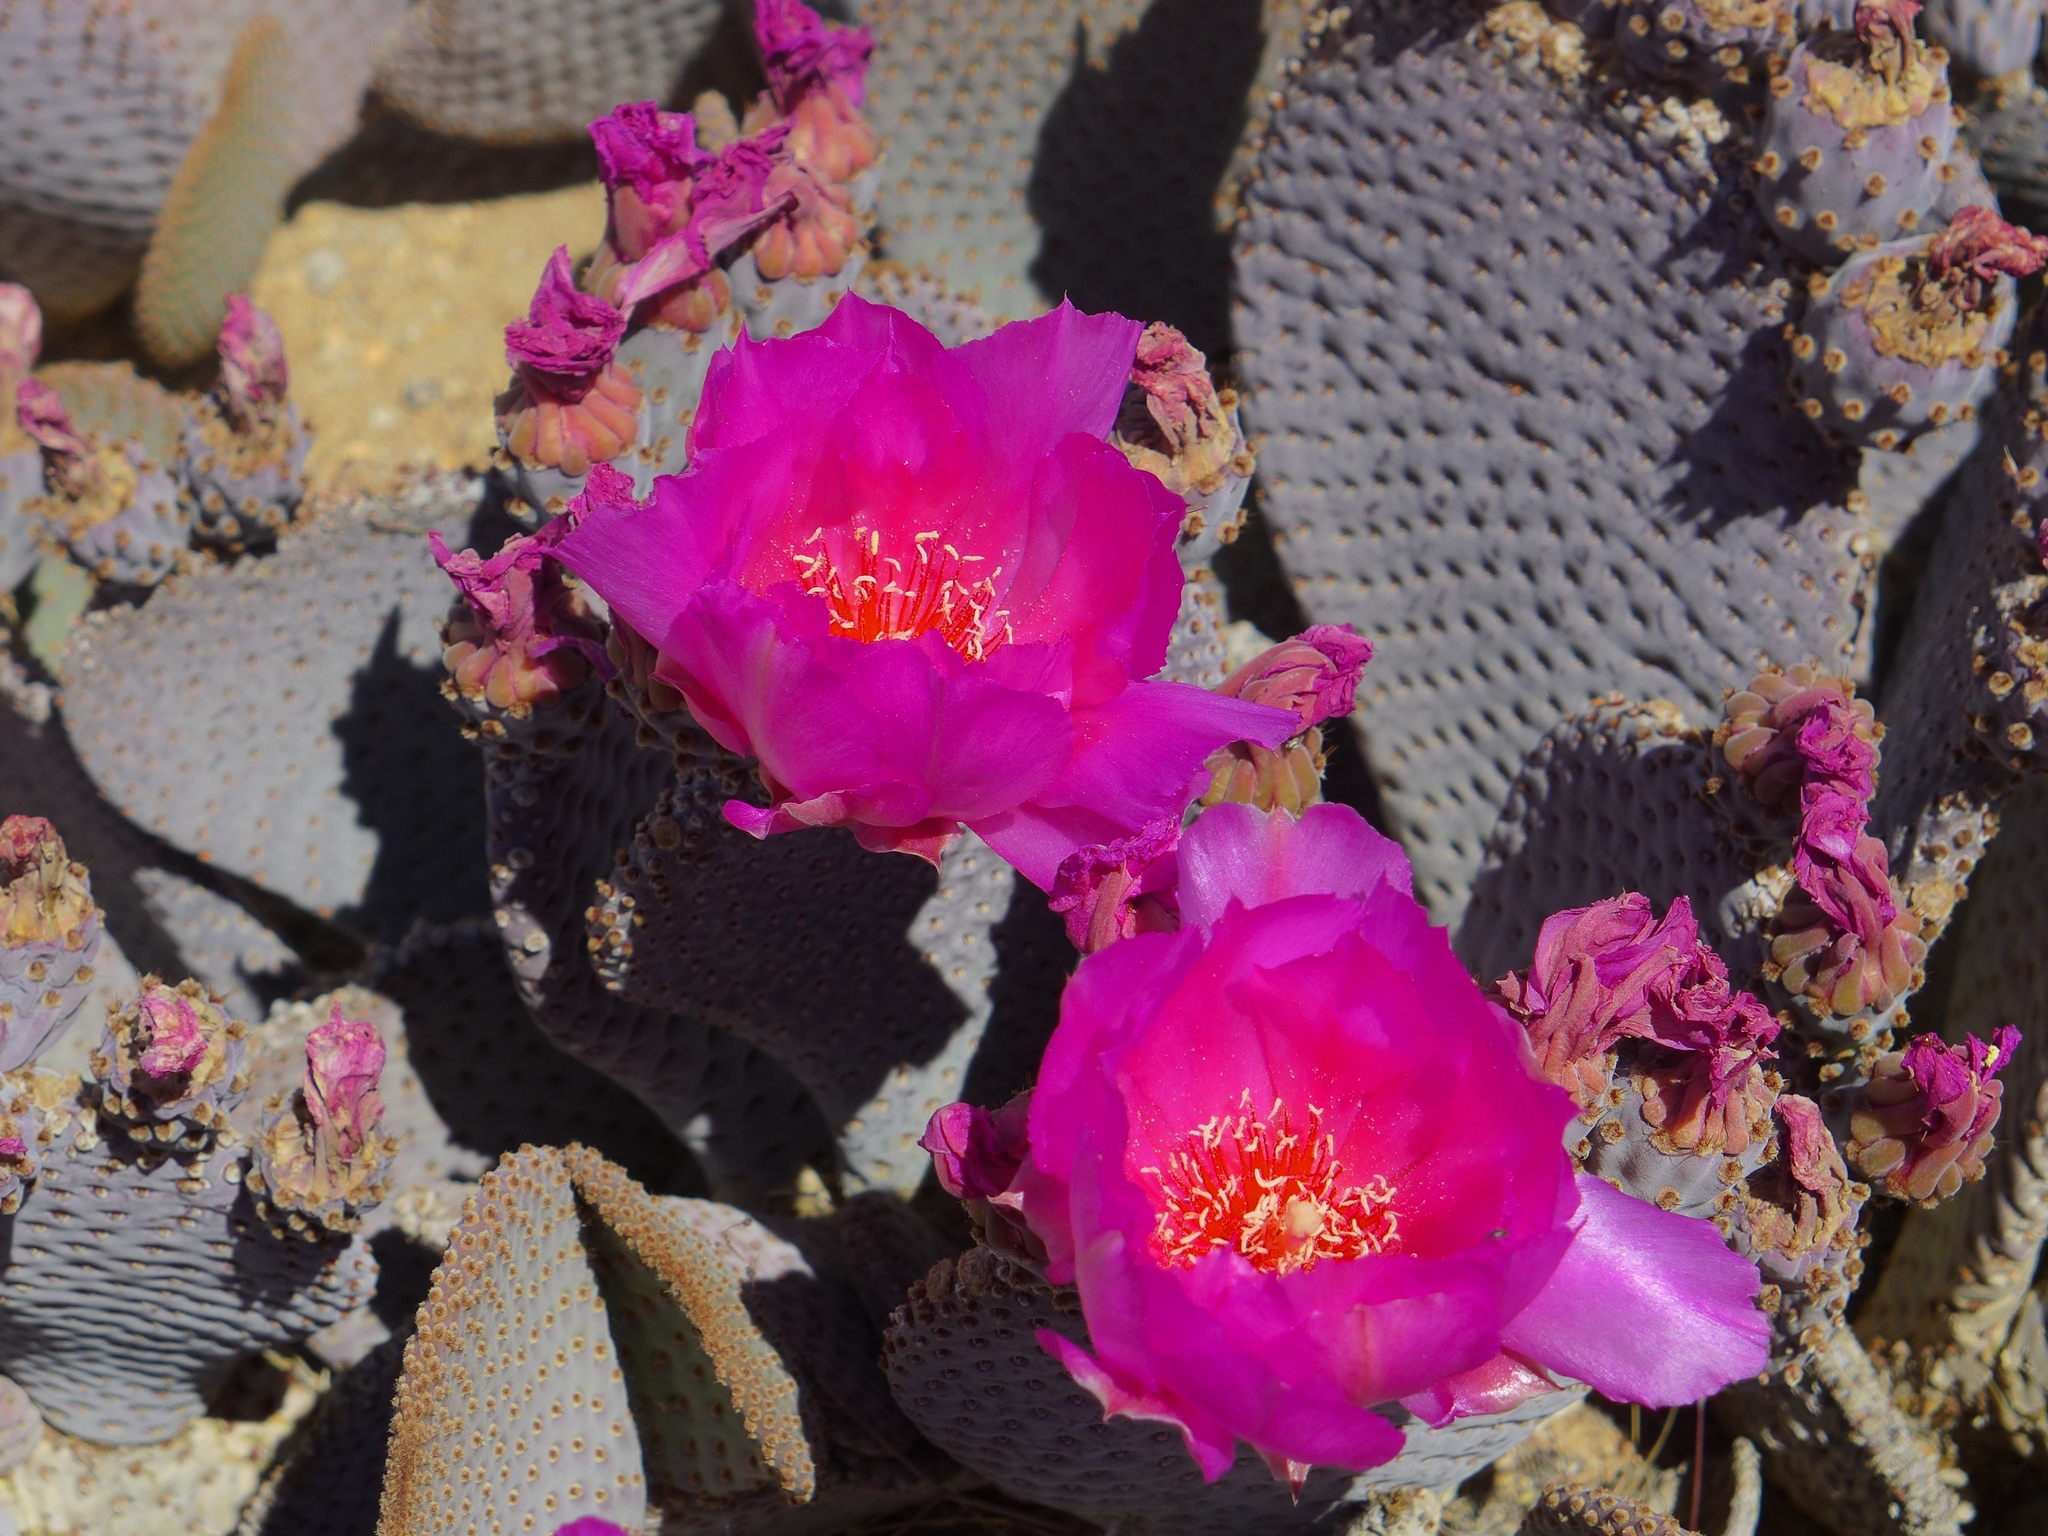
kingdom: Plantae
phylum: Tracheophyta
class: Magnoliopsida
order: Caryophyllales
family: Cactaceae
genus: Opuntia
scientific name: Opuntia basilaris
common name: Beavertail prickly-pear
